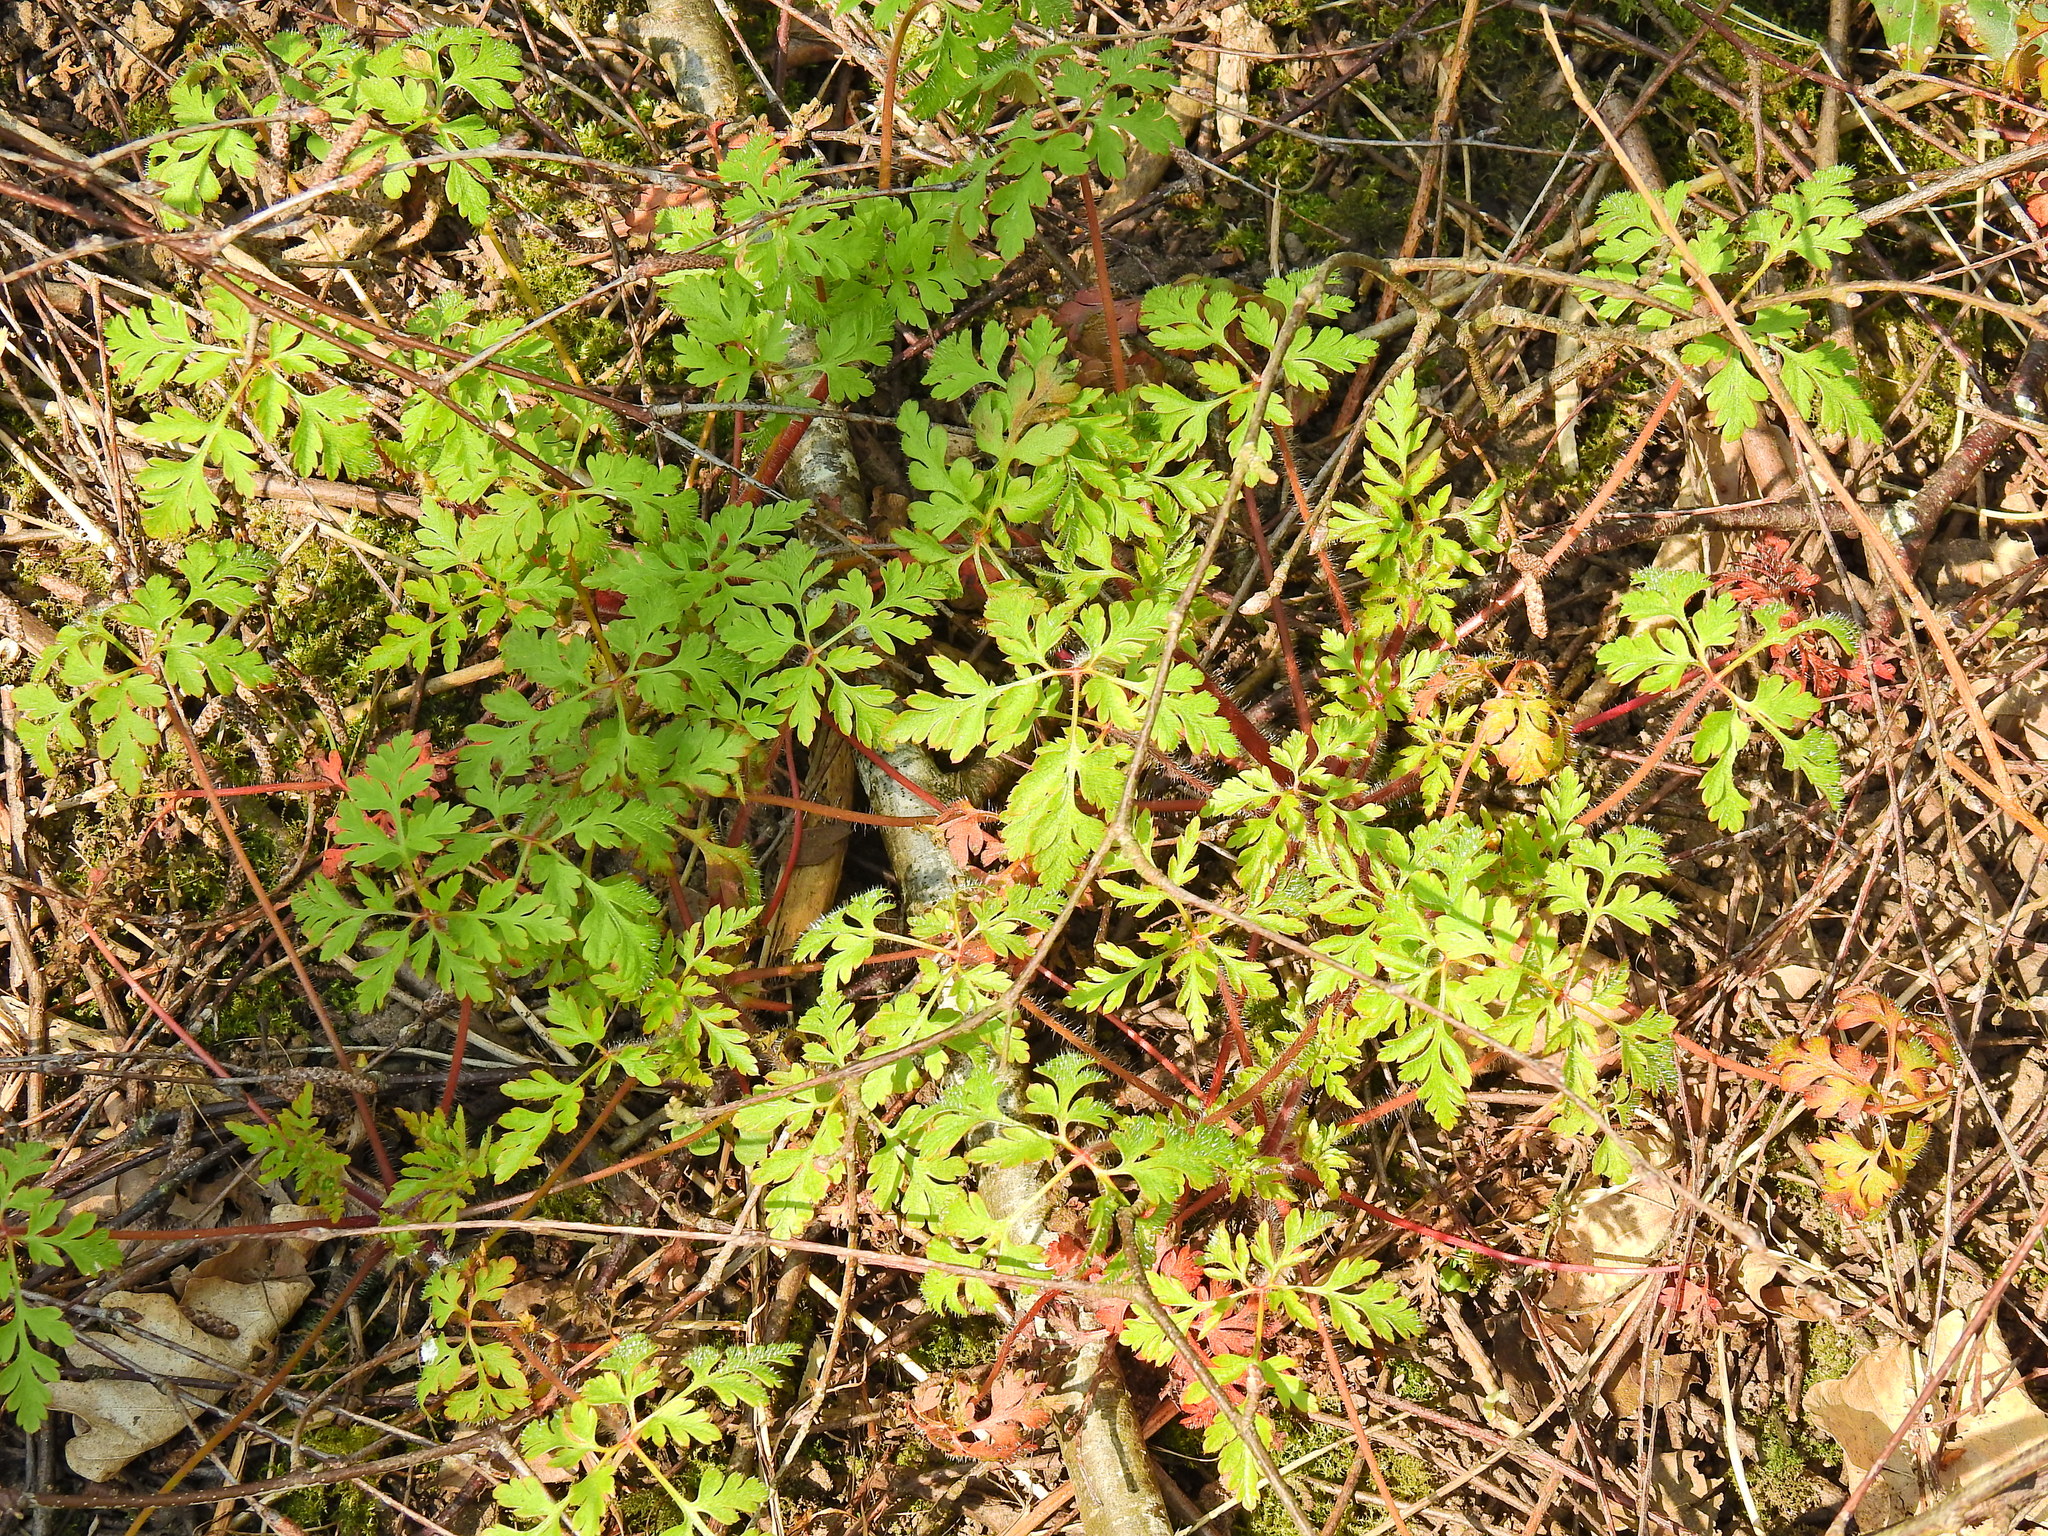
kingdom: Plantae
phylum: Tracheophyta
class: Magnoliopsida
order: Geraniales
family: Geraniaceae
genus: Geranium
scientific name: Geranium robertianum
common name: Herb-robert
